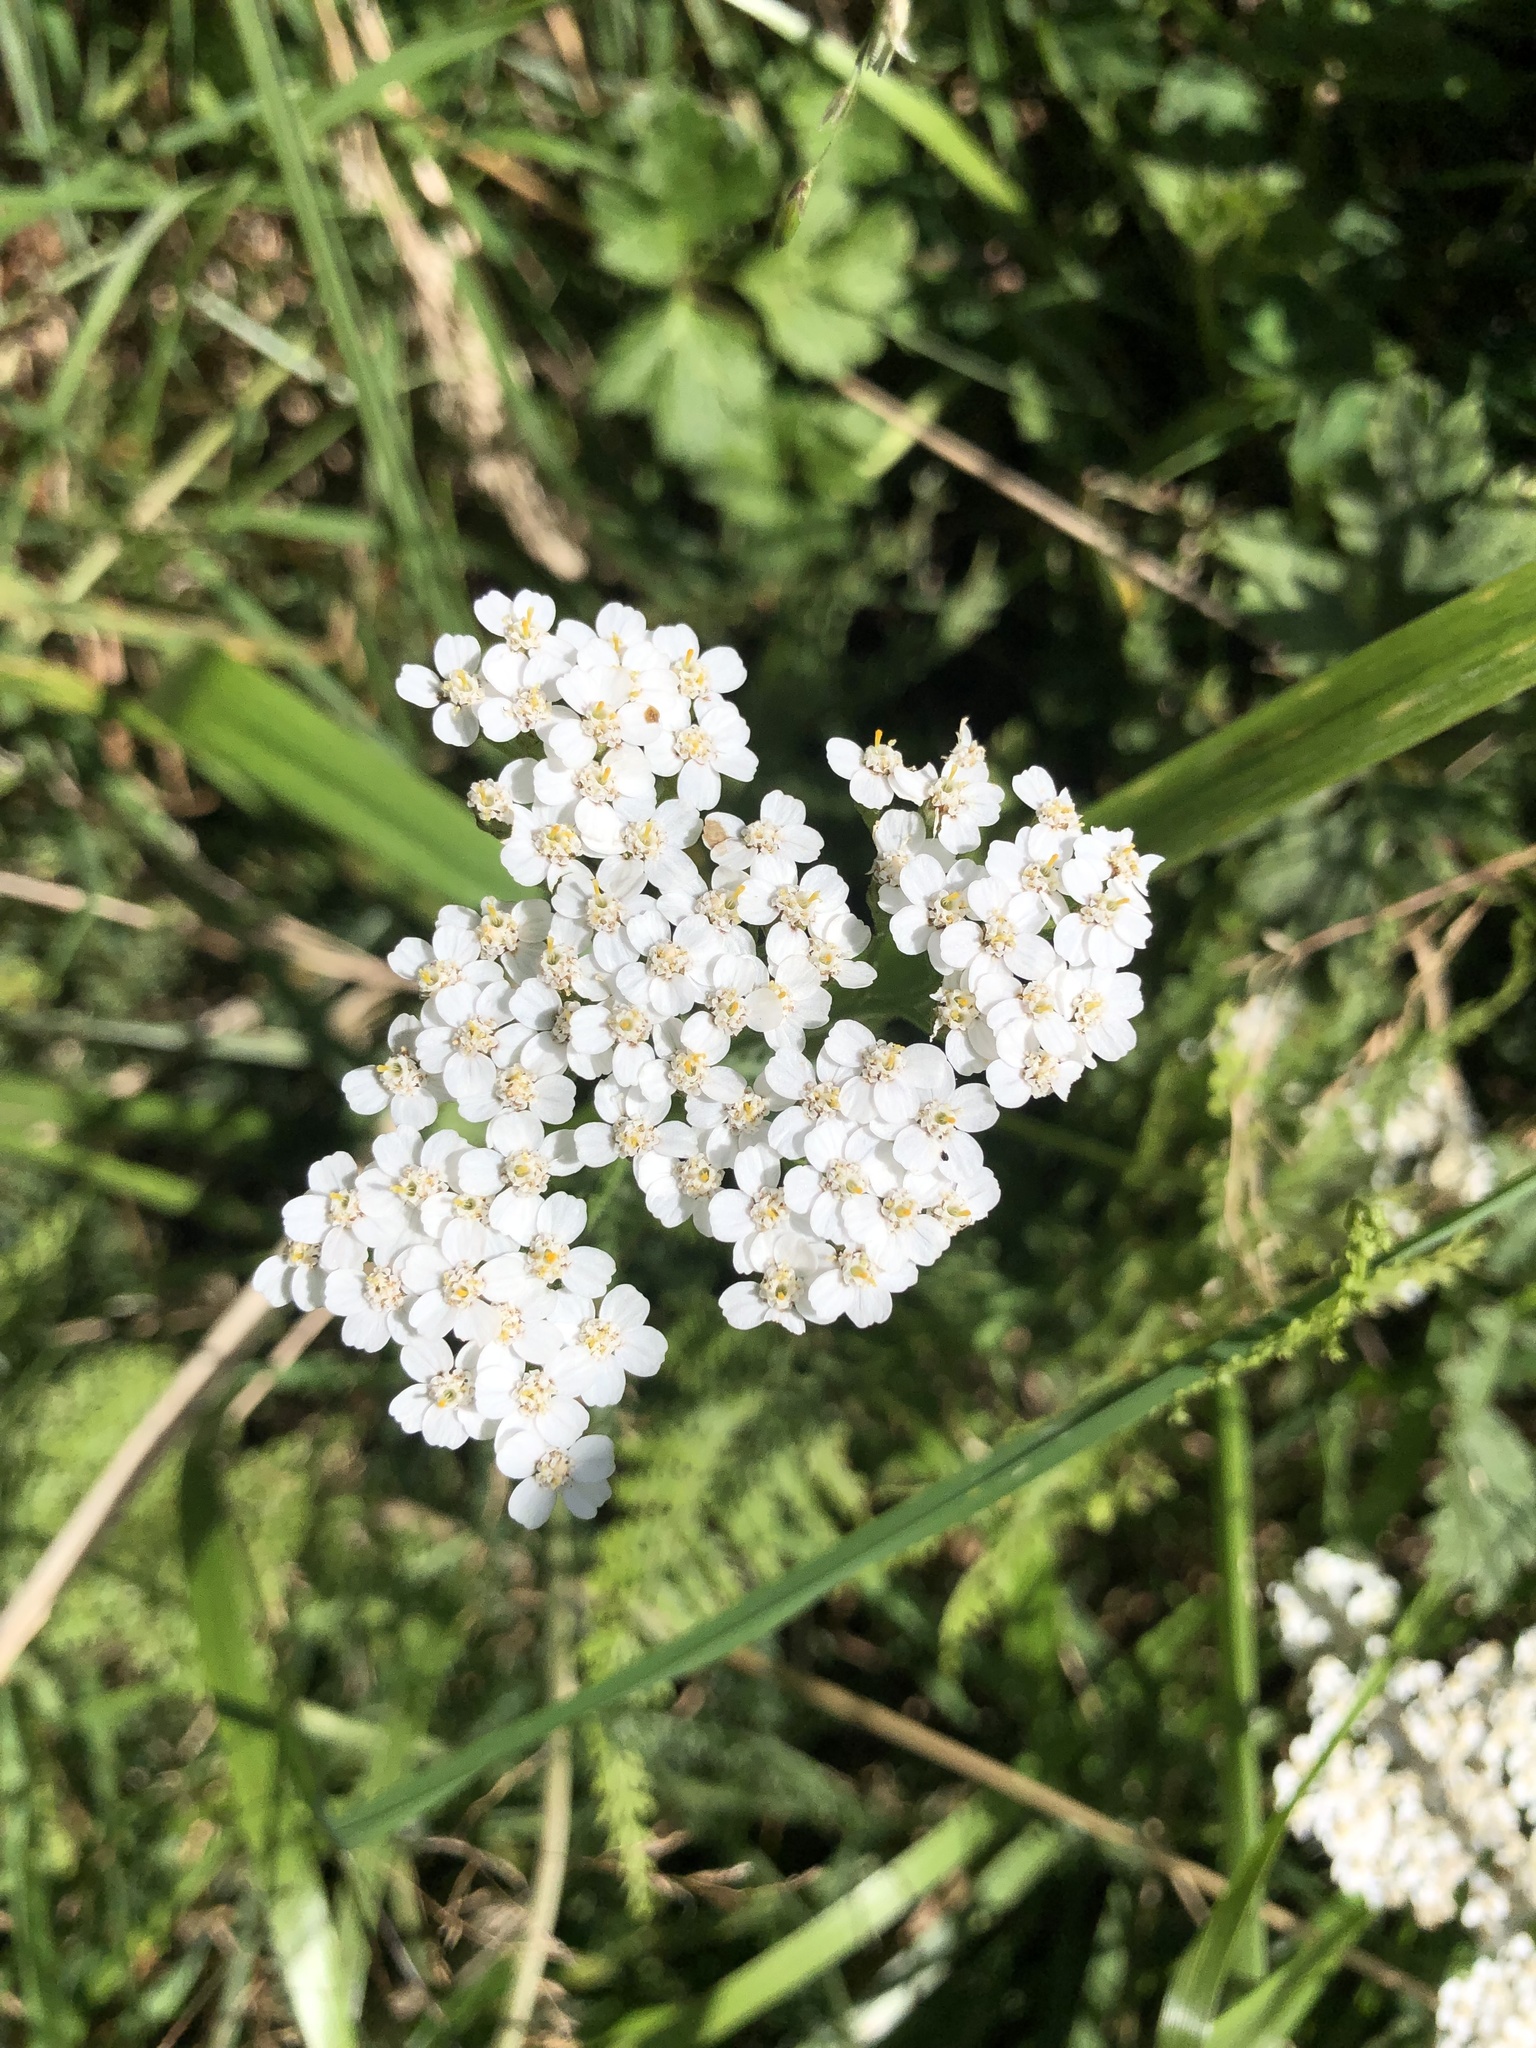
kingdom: Plantae
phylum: Tracheophyta
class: Magnoliopsida
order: Asterales
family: Asteraceae
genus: Achillea
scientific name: Achillea millefolium
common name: Yarrow
